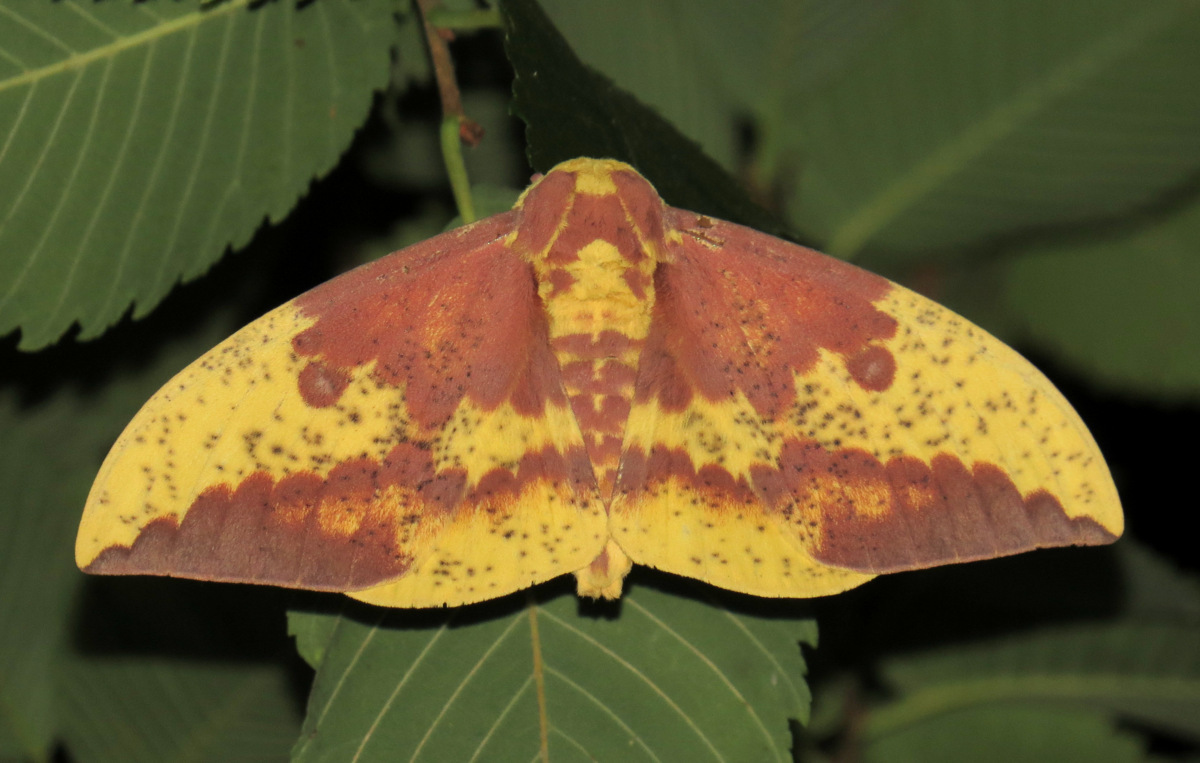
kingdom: Animalia
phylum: Arthropoda
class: Insecta
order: Lepidoptera
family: Saturniidae
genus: Eacles
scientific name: Eacles imperialis
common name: Imperial moth
